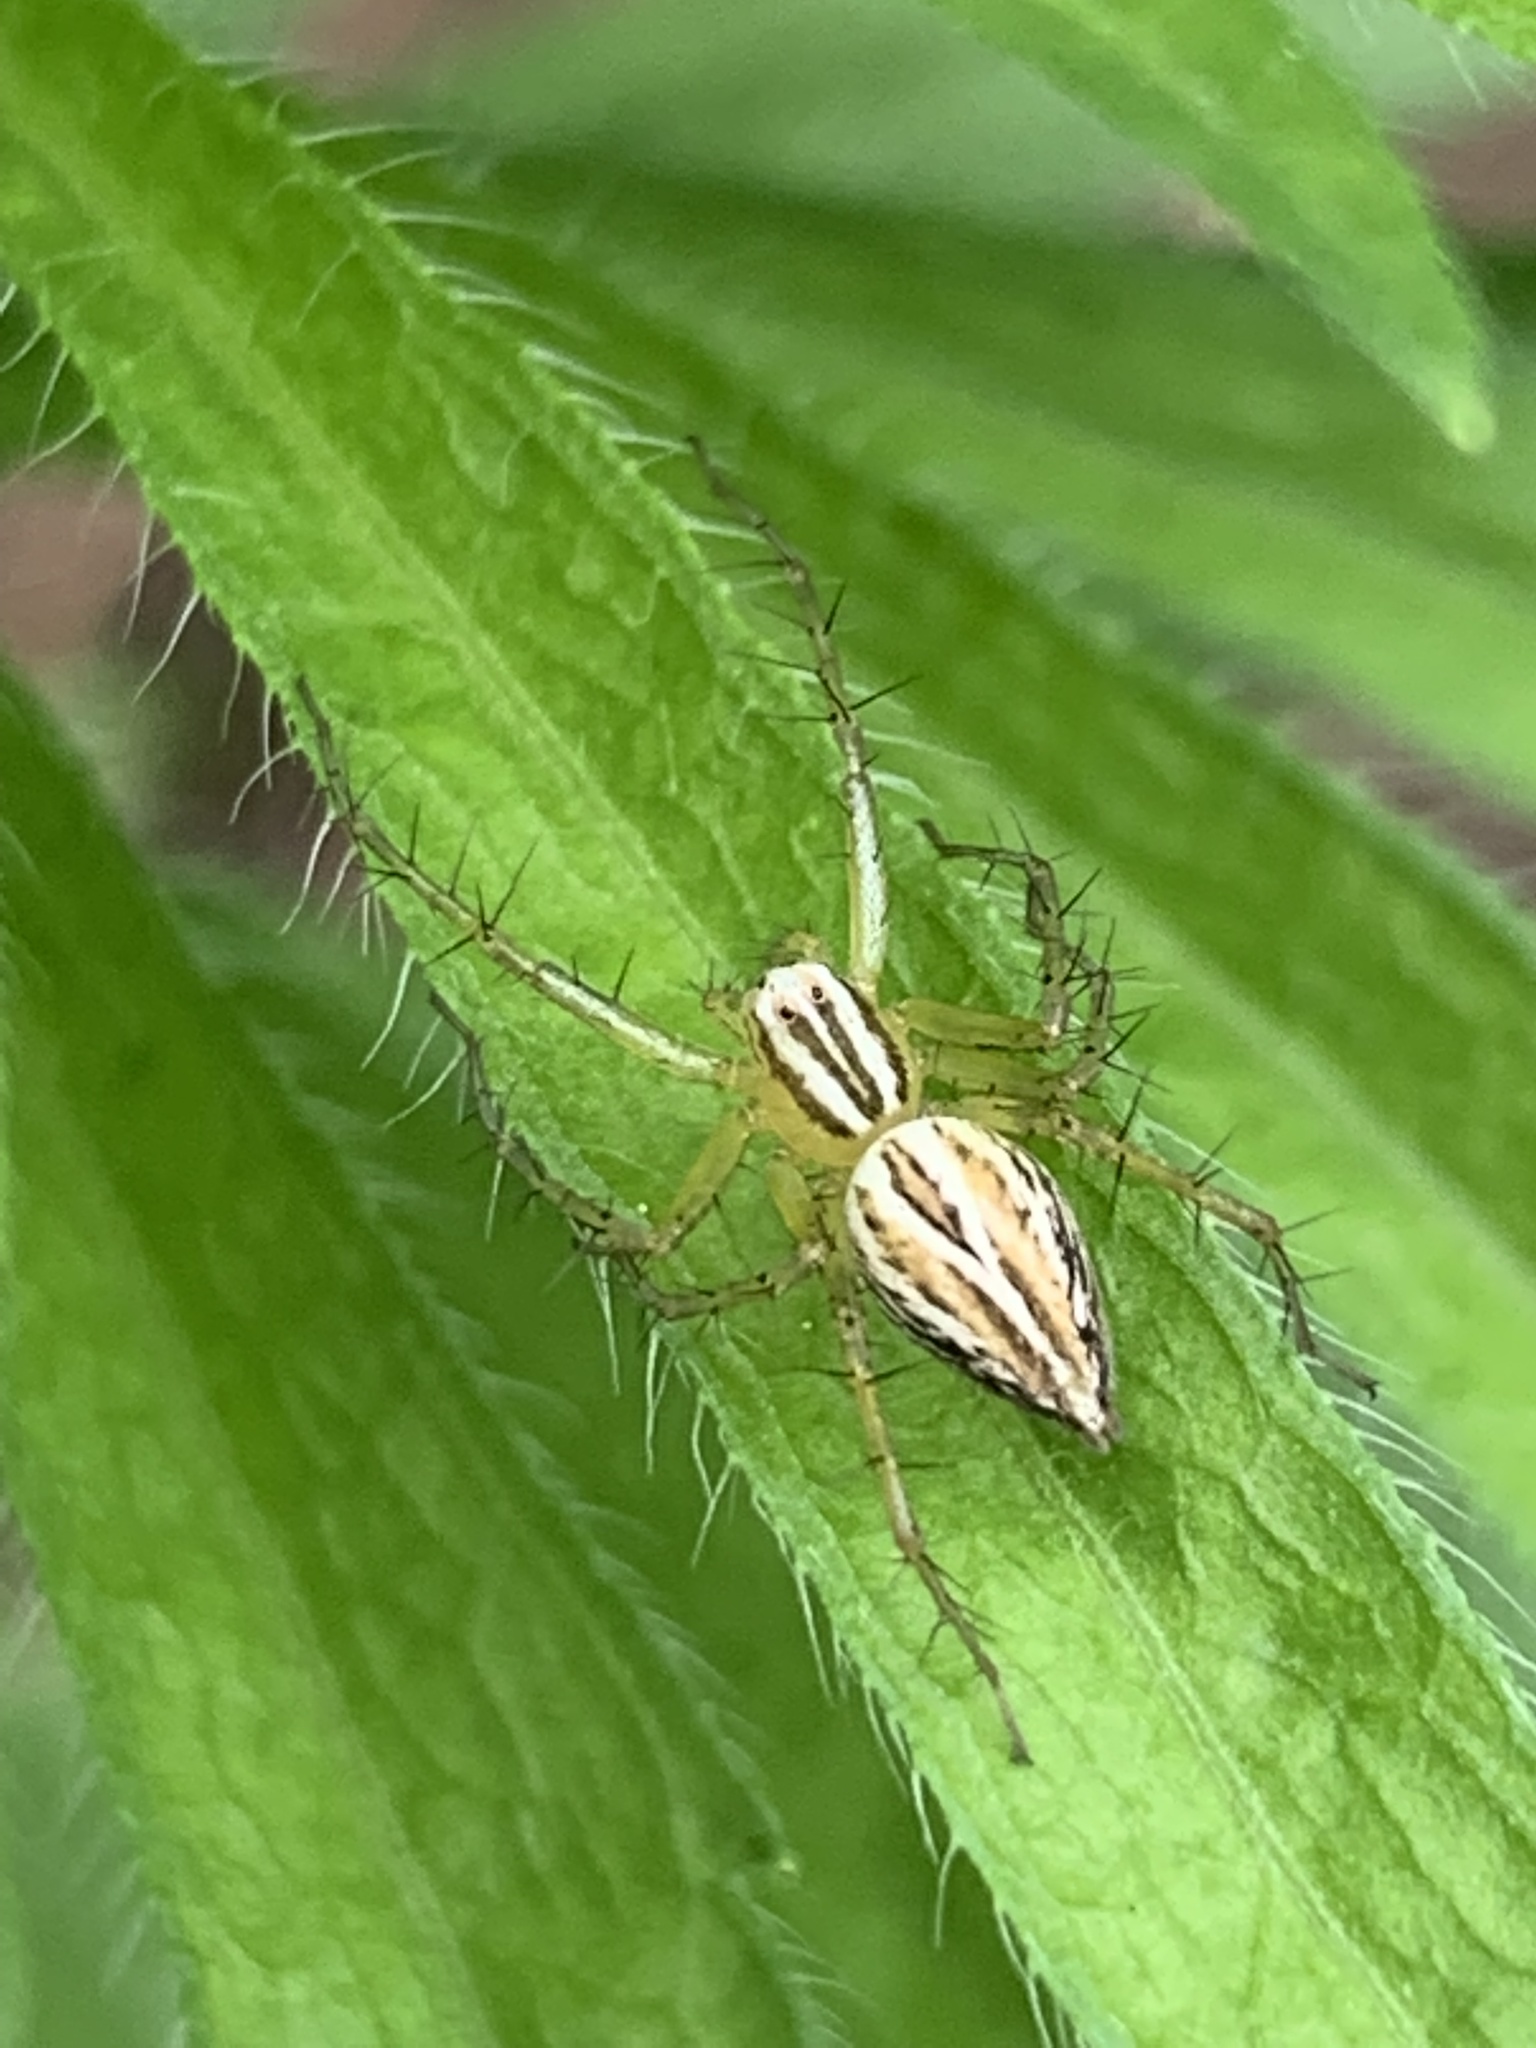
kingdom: Animalia
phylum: Arthropoda
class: Arachnida
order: Araneae
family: Oxyopidae
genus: Oxyopes
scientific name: Oxyopes salticus
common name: Lynx spiders
